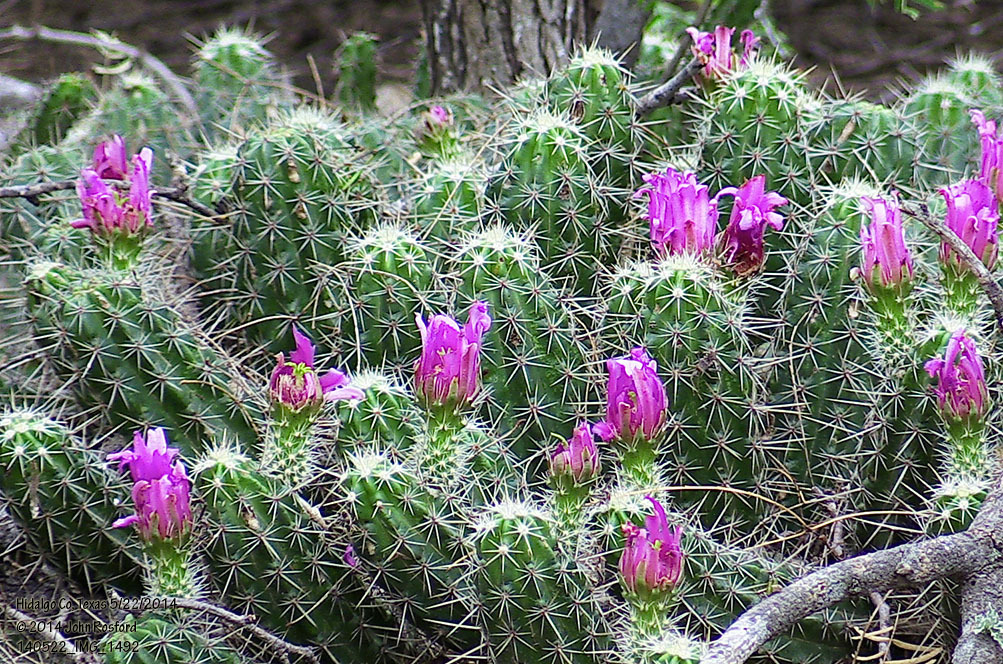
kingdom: Plantae
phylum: Tracheophyta
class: Magnoliopsida
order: Caryophyllales
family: Cactaceae
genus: Echinocereus
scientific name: Echinocereus enneacanthus
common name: Pitaya
